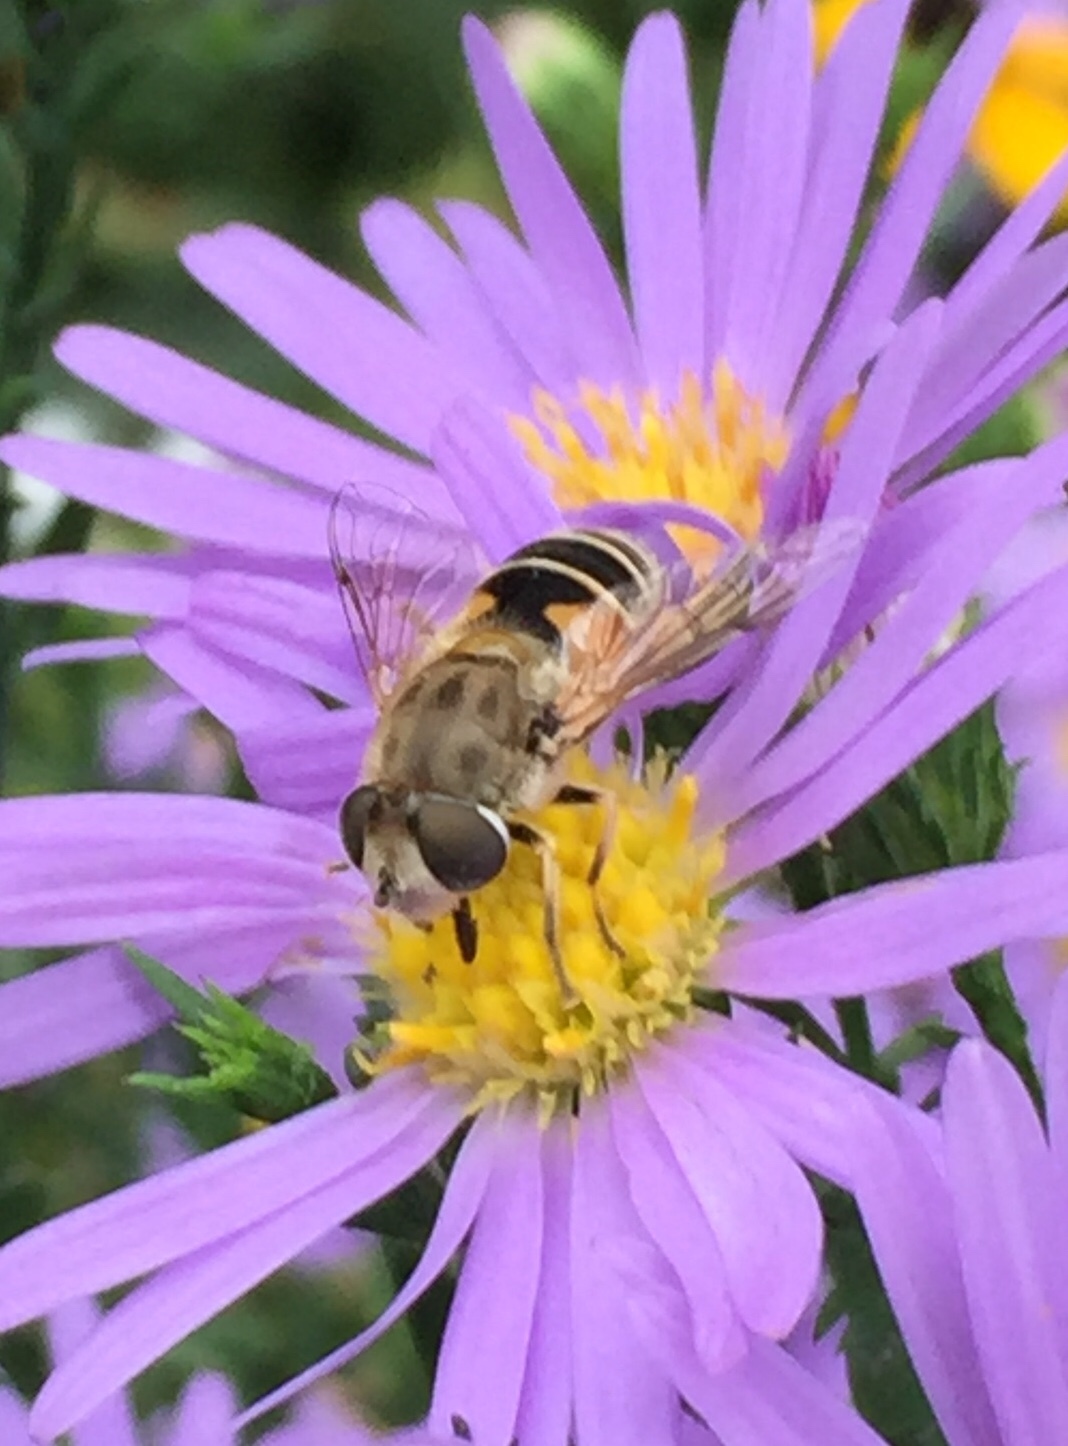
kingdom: Animalia
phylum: Arthropoda
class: Insecta
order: Diptera
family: Syrphidae
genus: Eristalis
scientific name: Eristalis arbustorum
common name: Hover fly
